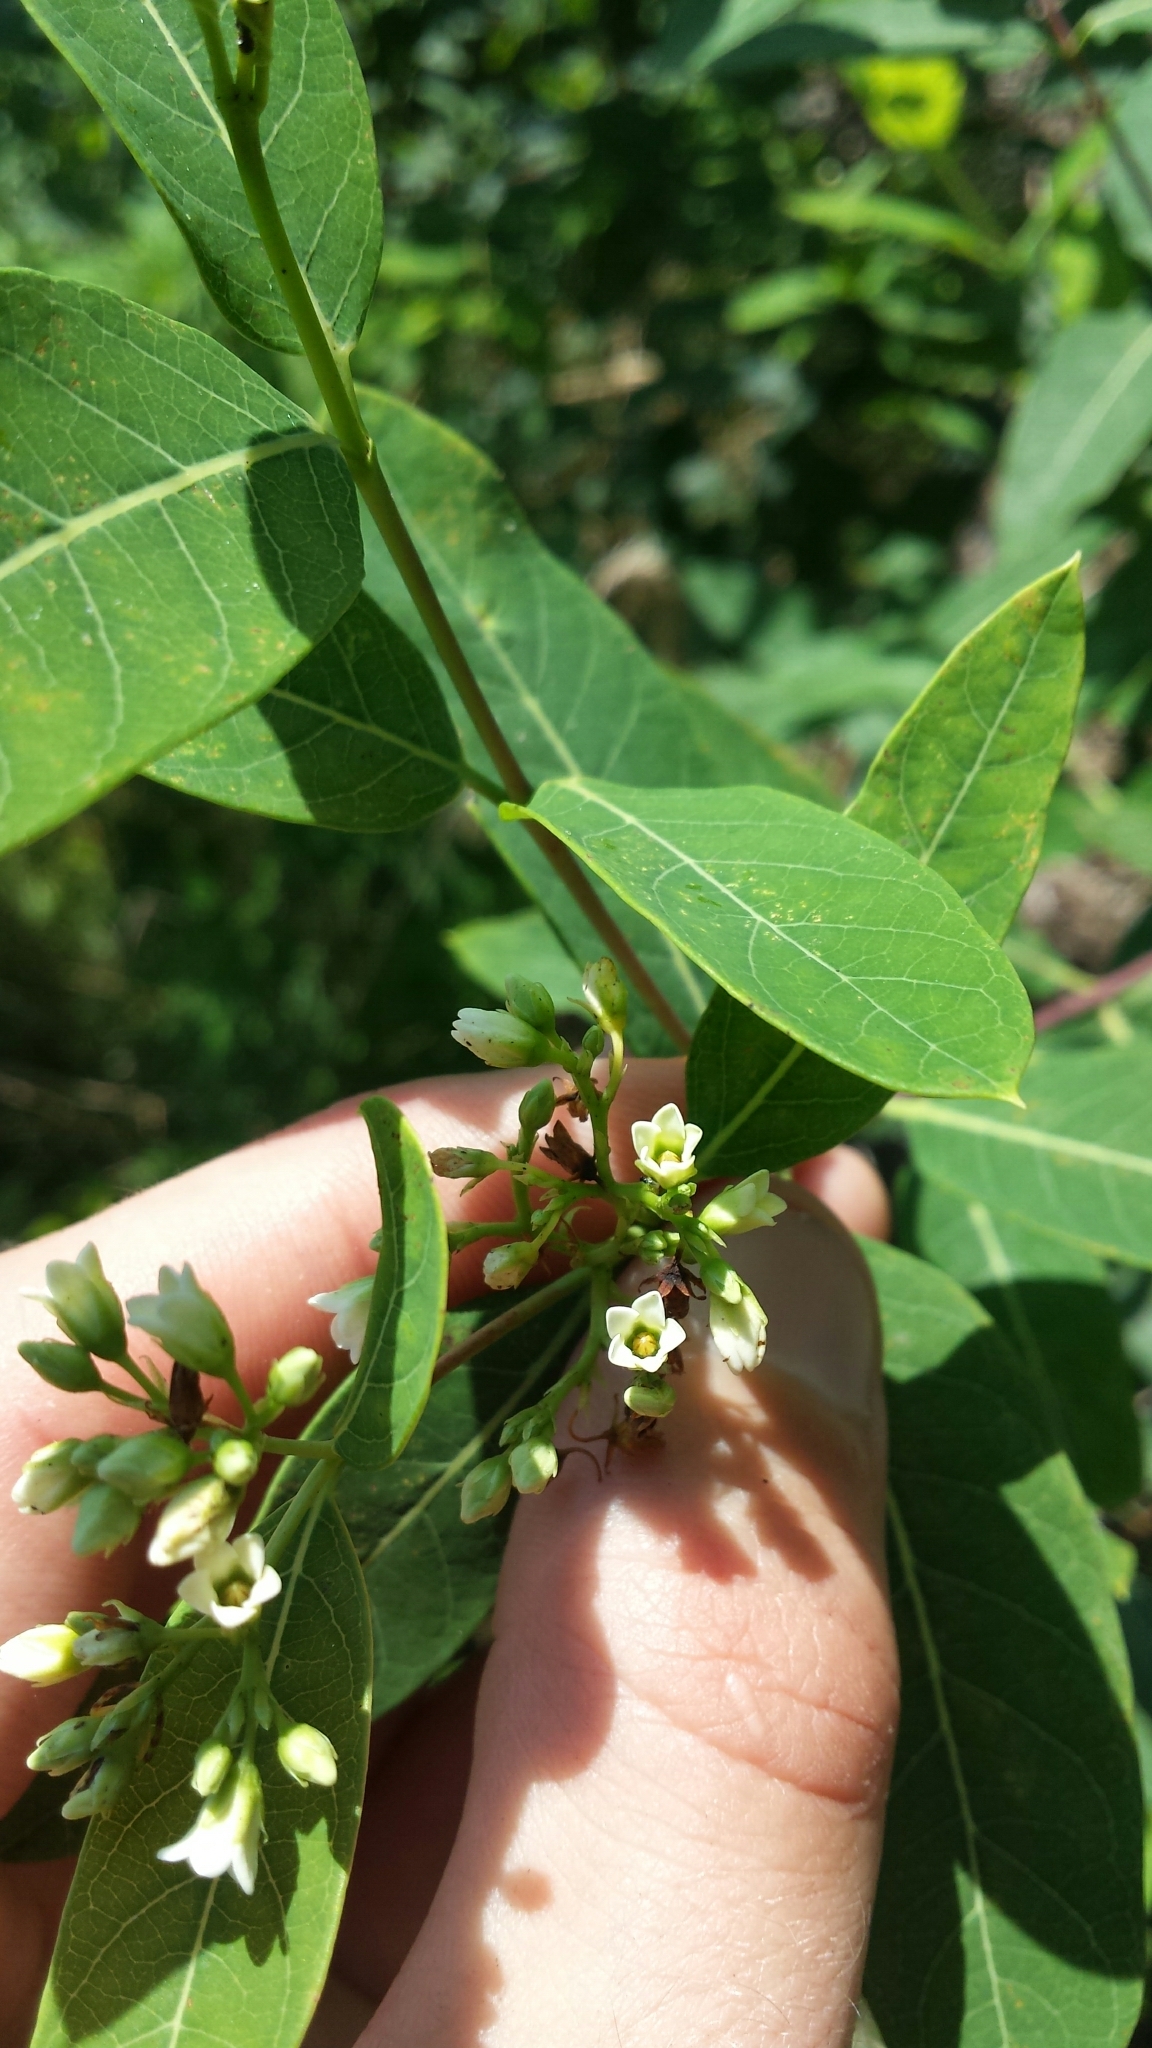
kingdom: Plantae
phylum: Tracheophyta
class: Magnoliopsida
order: Gentianales
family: Apocynaceae
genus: Apocynum
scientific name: Apocynum cannabinum
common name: Hemp dogbane
